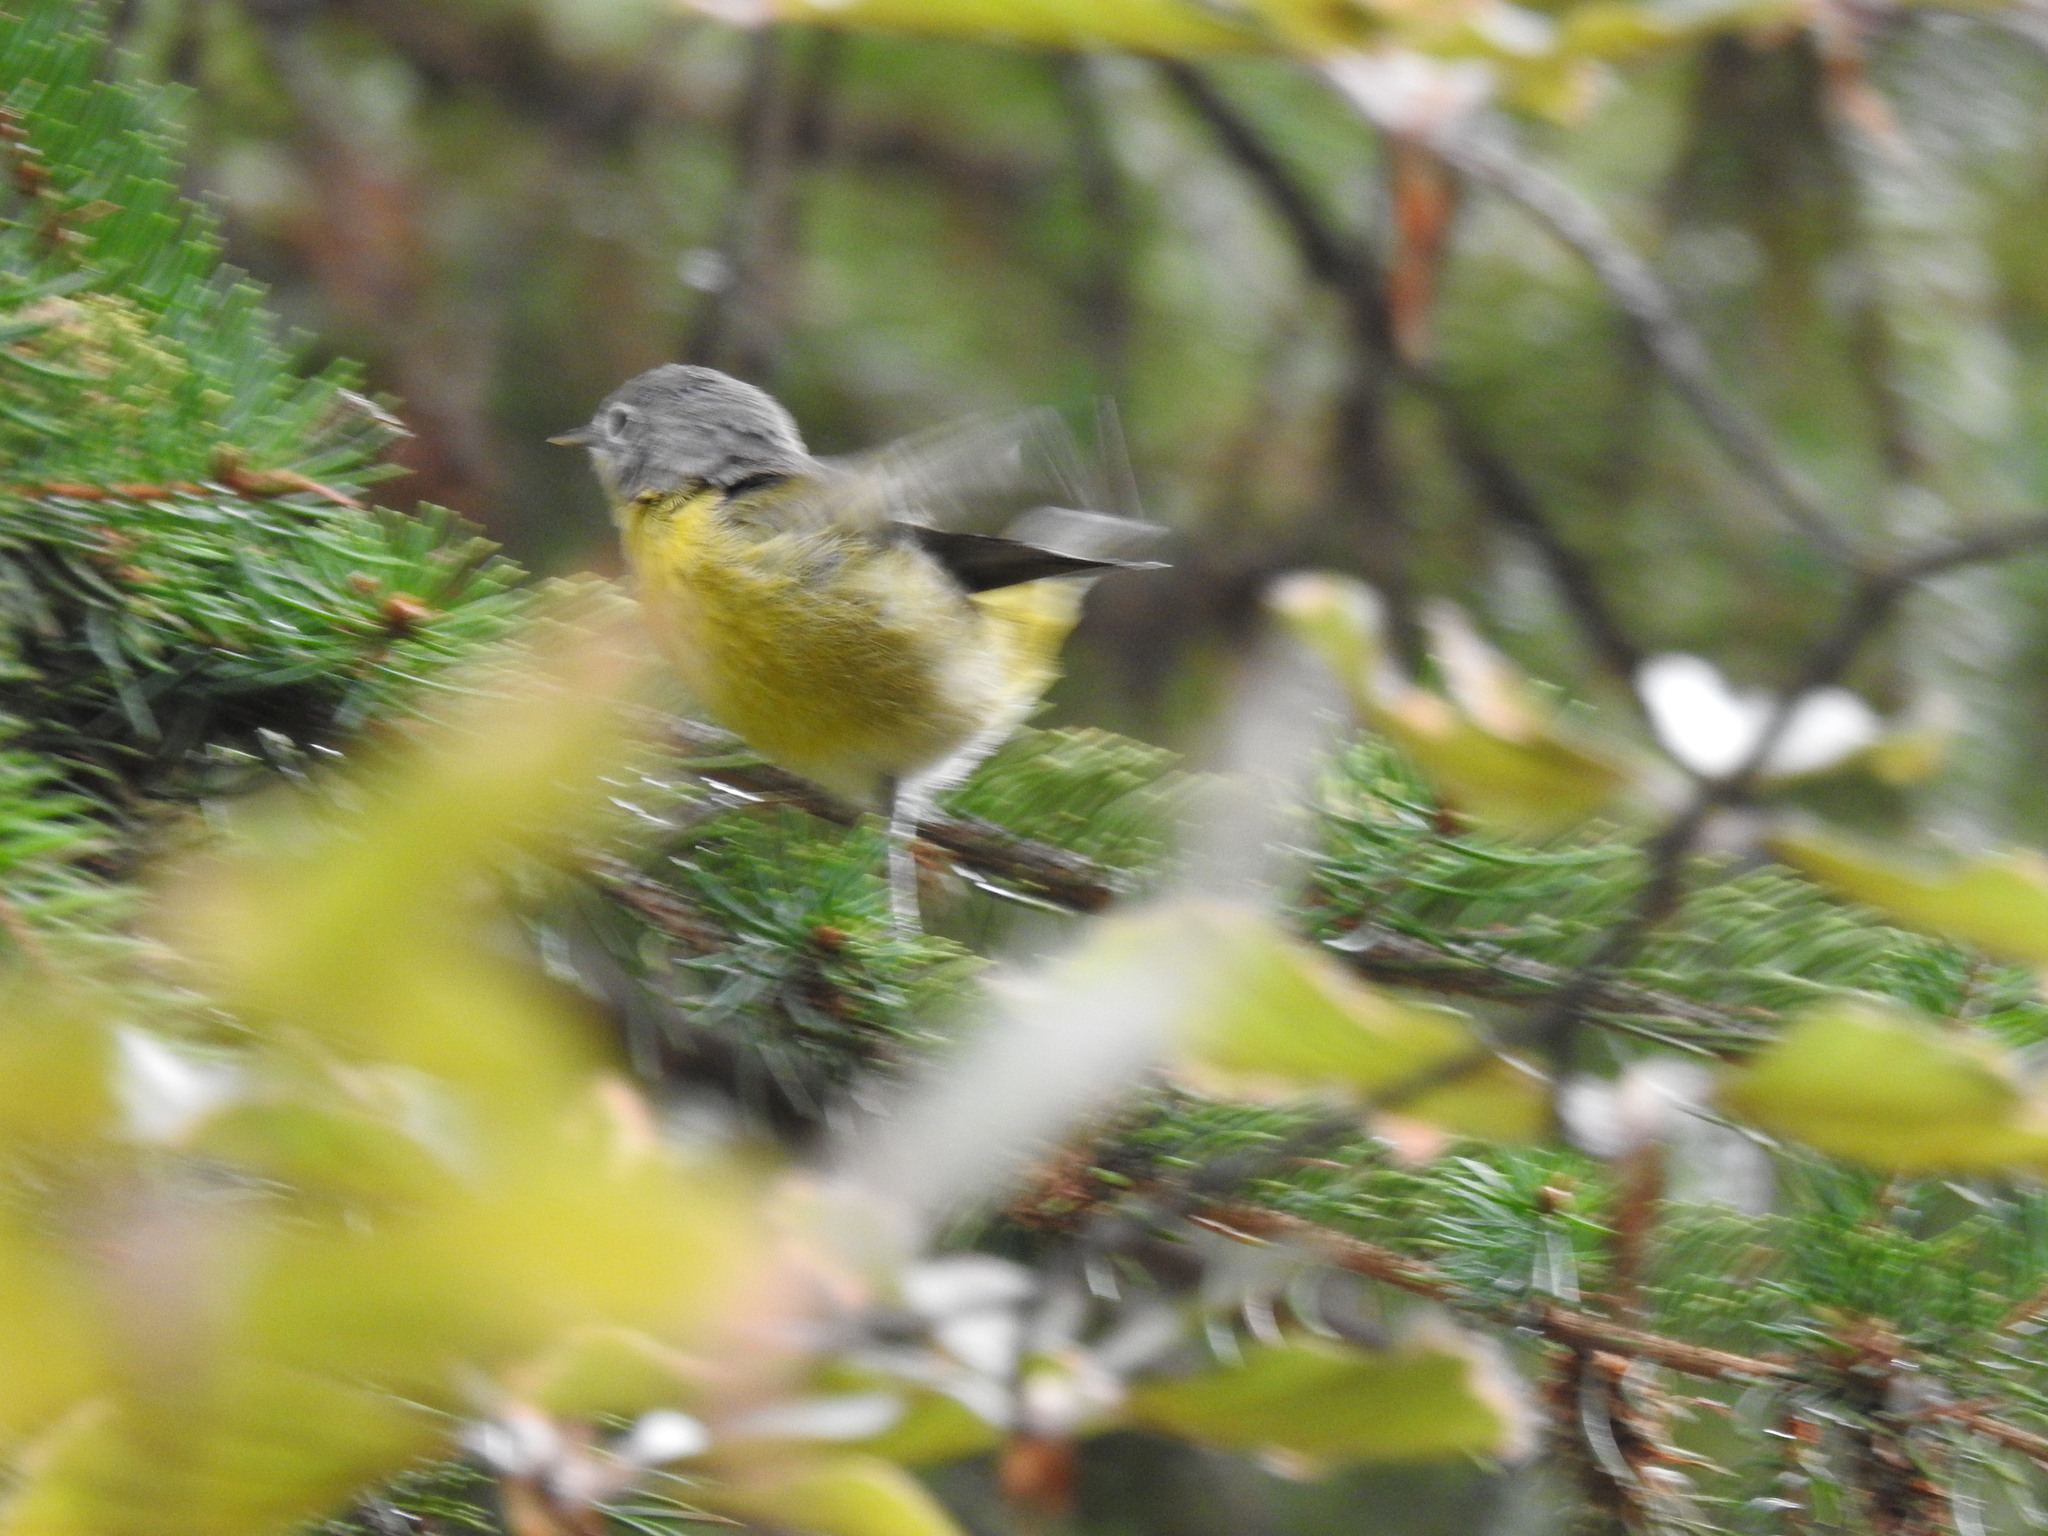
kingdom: Animalia
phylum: Chordata
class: Aves
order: Passeriformes
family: Parulidae
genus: Leiothlypis
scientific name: Leiothlypis ruficapilla
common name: Nashville warbler
